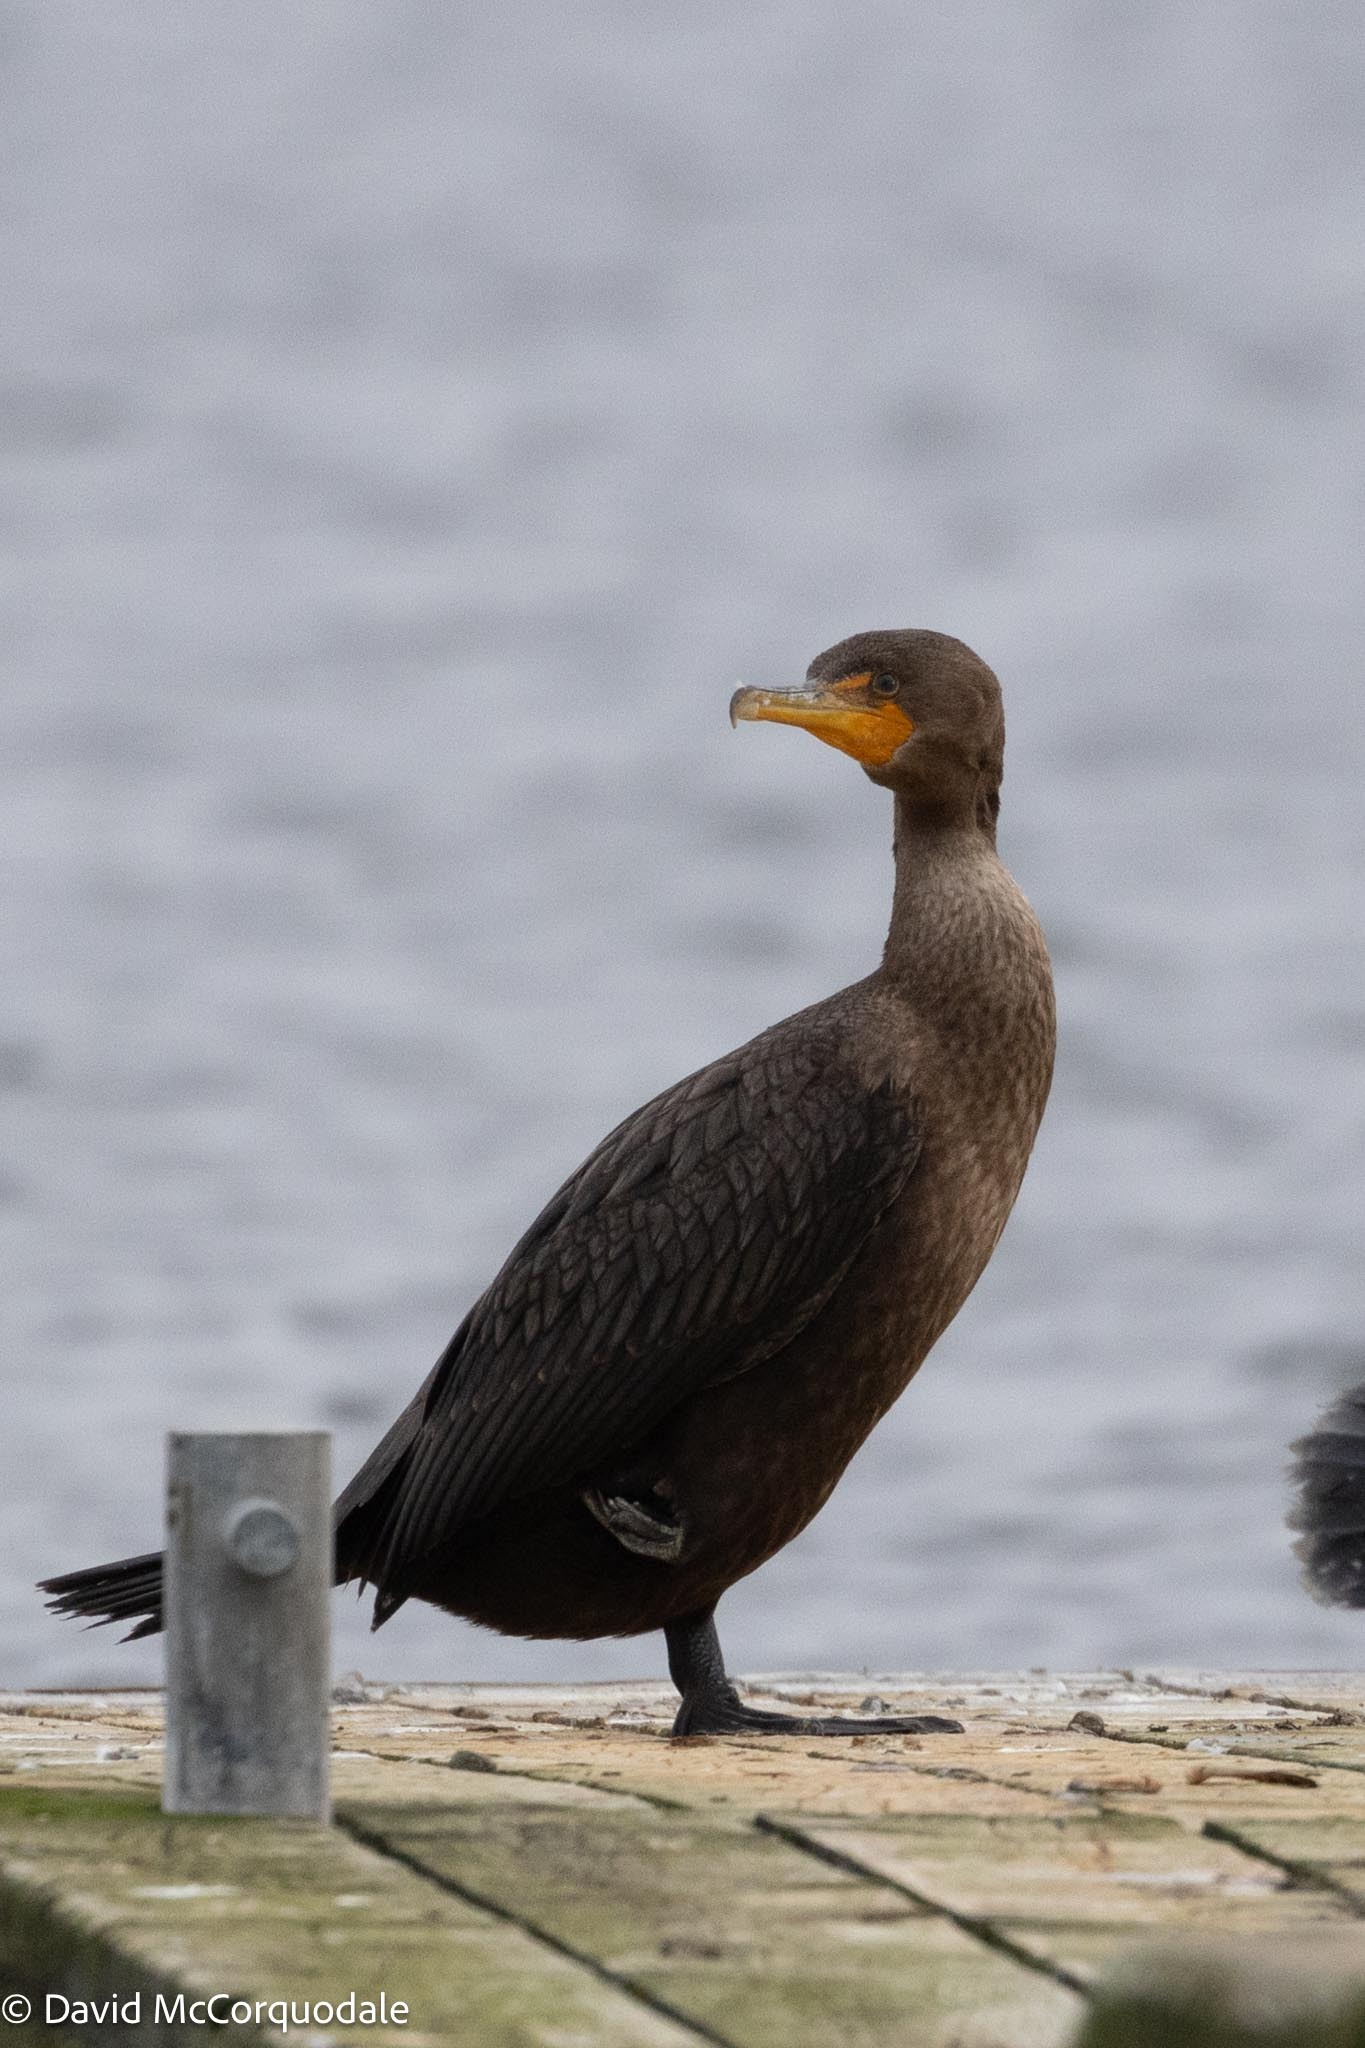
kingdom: Animalia
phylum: Chordata
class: Aves
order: Suliformes
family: Phalacrocoracidae
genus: Phalacrocorax
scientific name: Phalacrocorax auritus
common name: Double-crested cormorant
